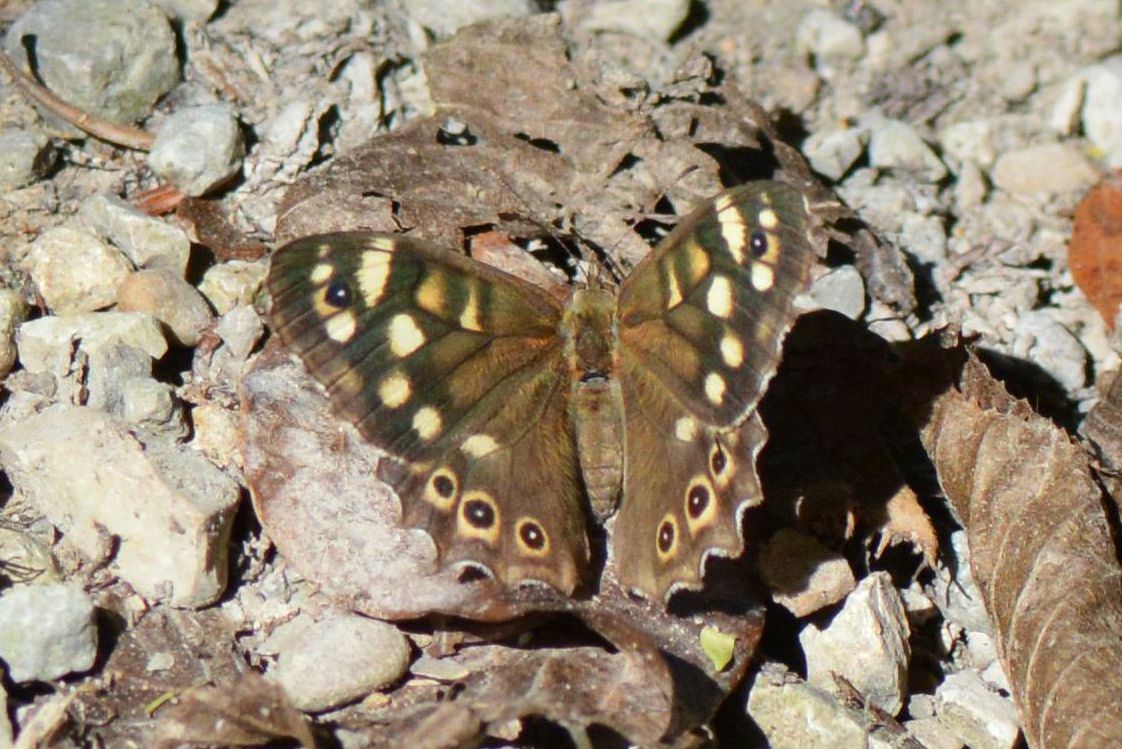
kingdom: Animalia
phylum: Arthropoda
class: Insecta
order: Lepidoptera
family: Nymphalidae
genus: Pararge
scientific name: Pararge aegeria
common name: Speckled wood
